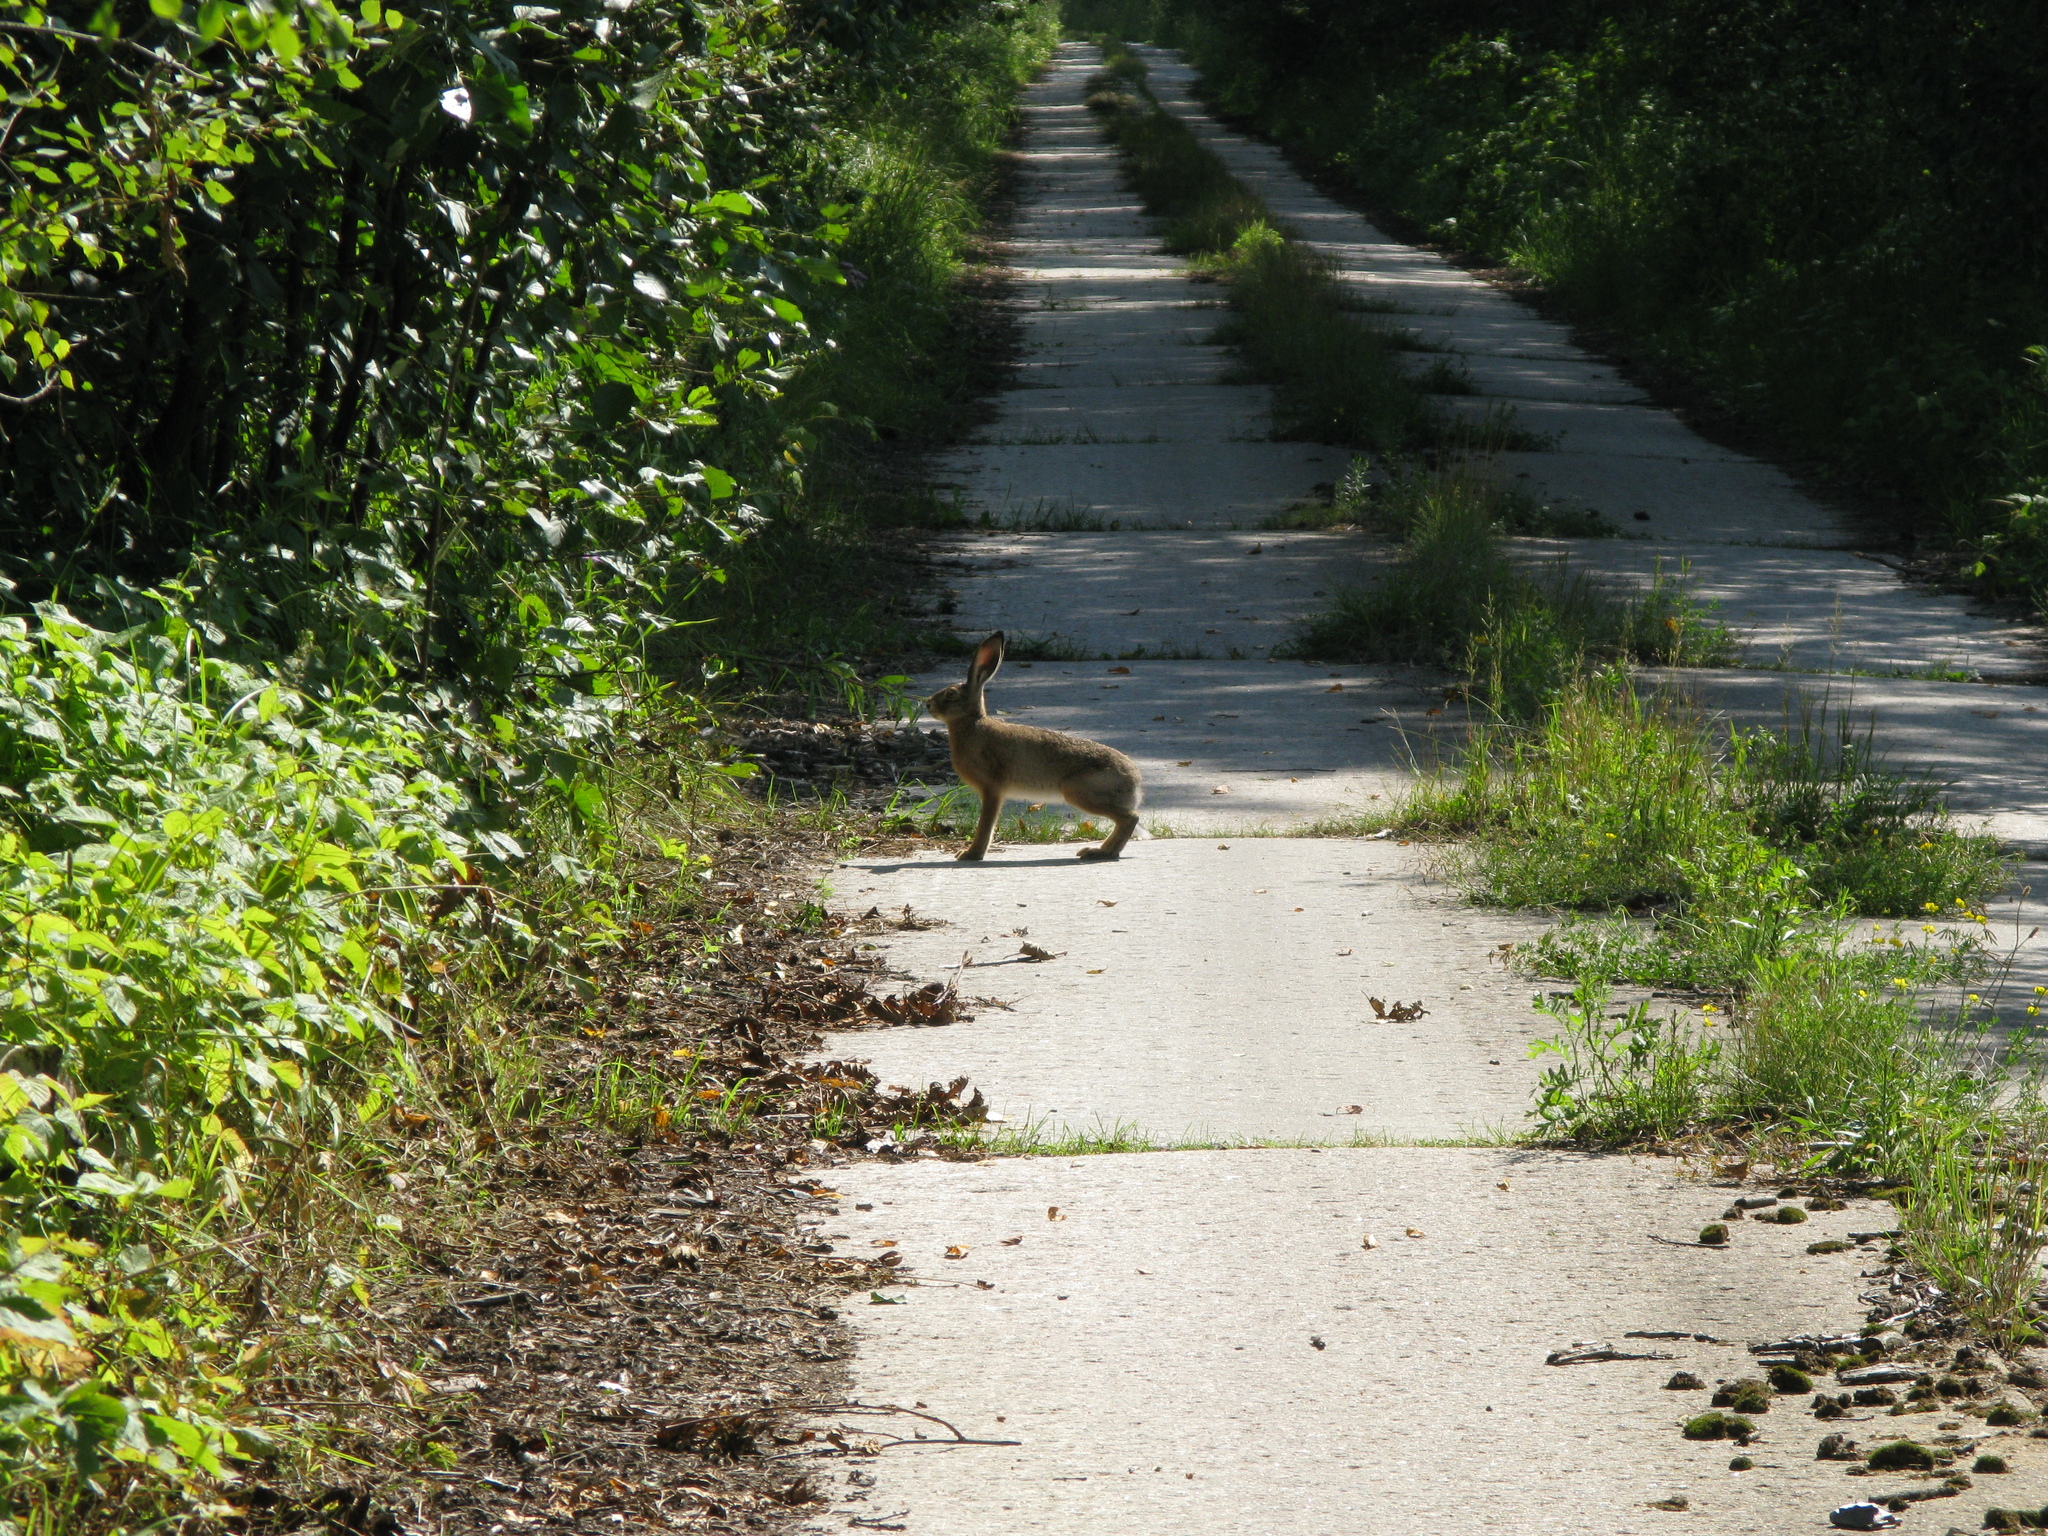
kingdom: Animalia
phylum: Chordata
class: Mammalia
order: Lagomorpha
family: Leporidae
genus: Lepus
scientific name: Lepus europaeus
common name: European hare
